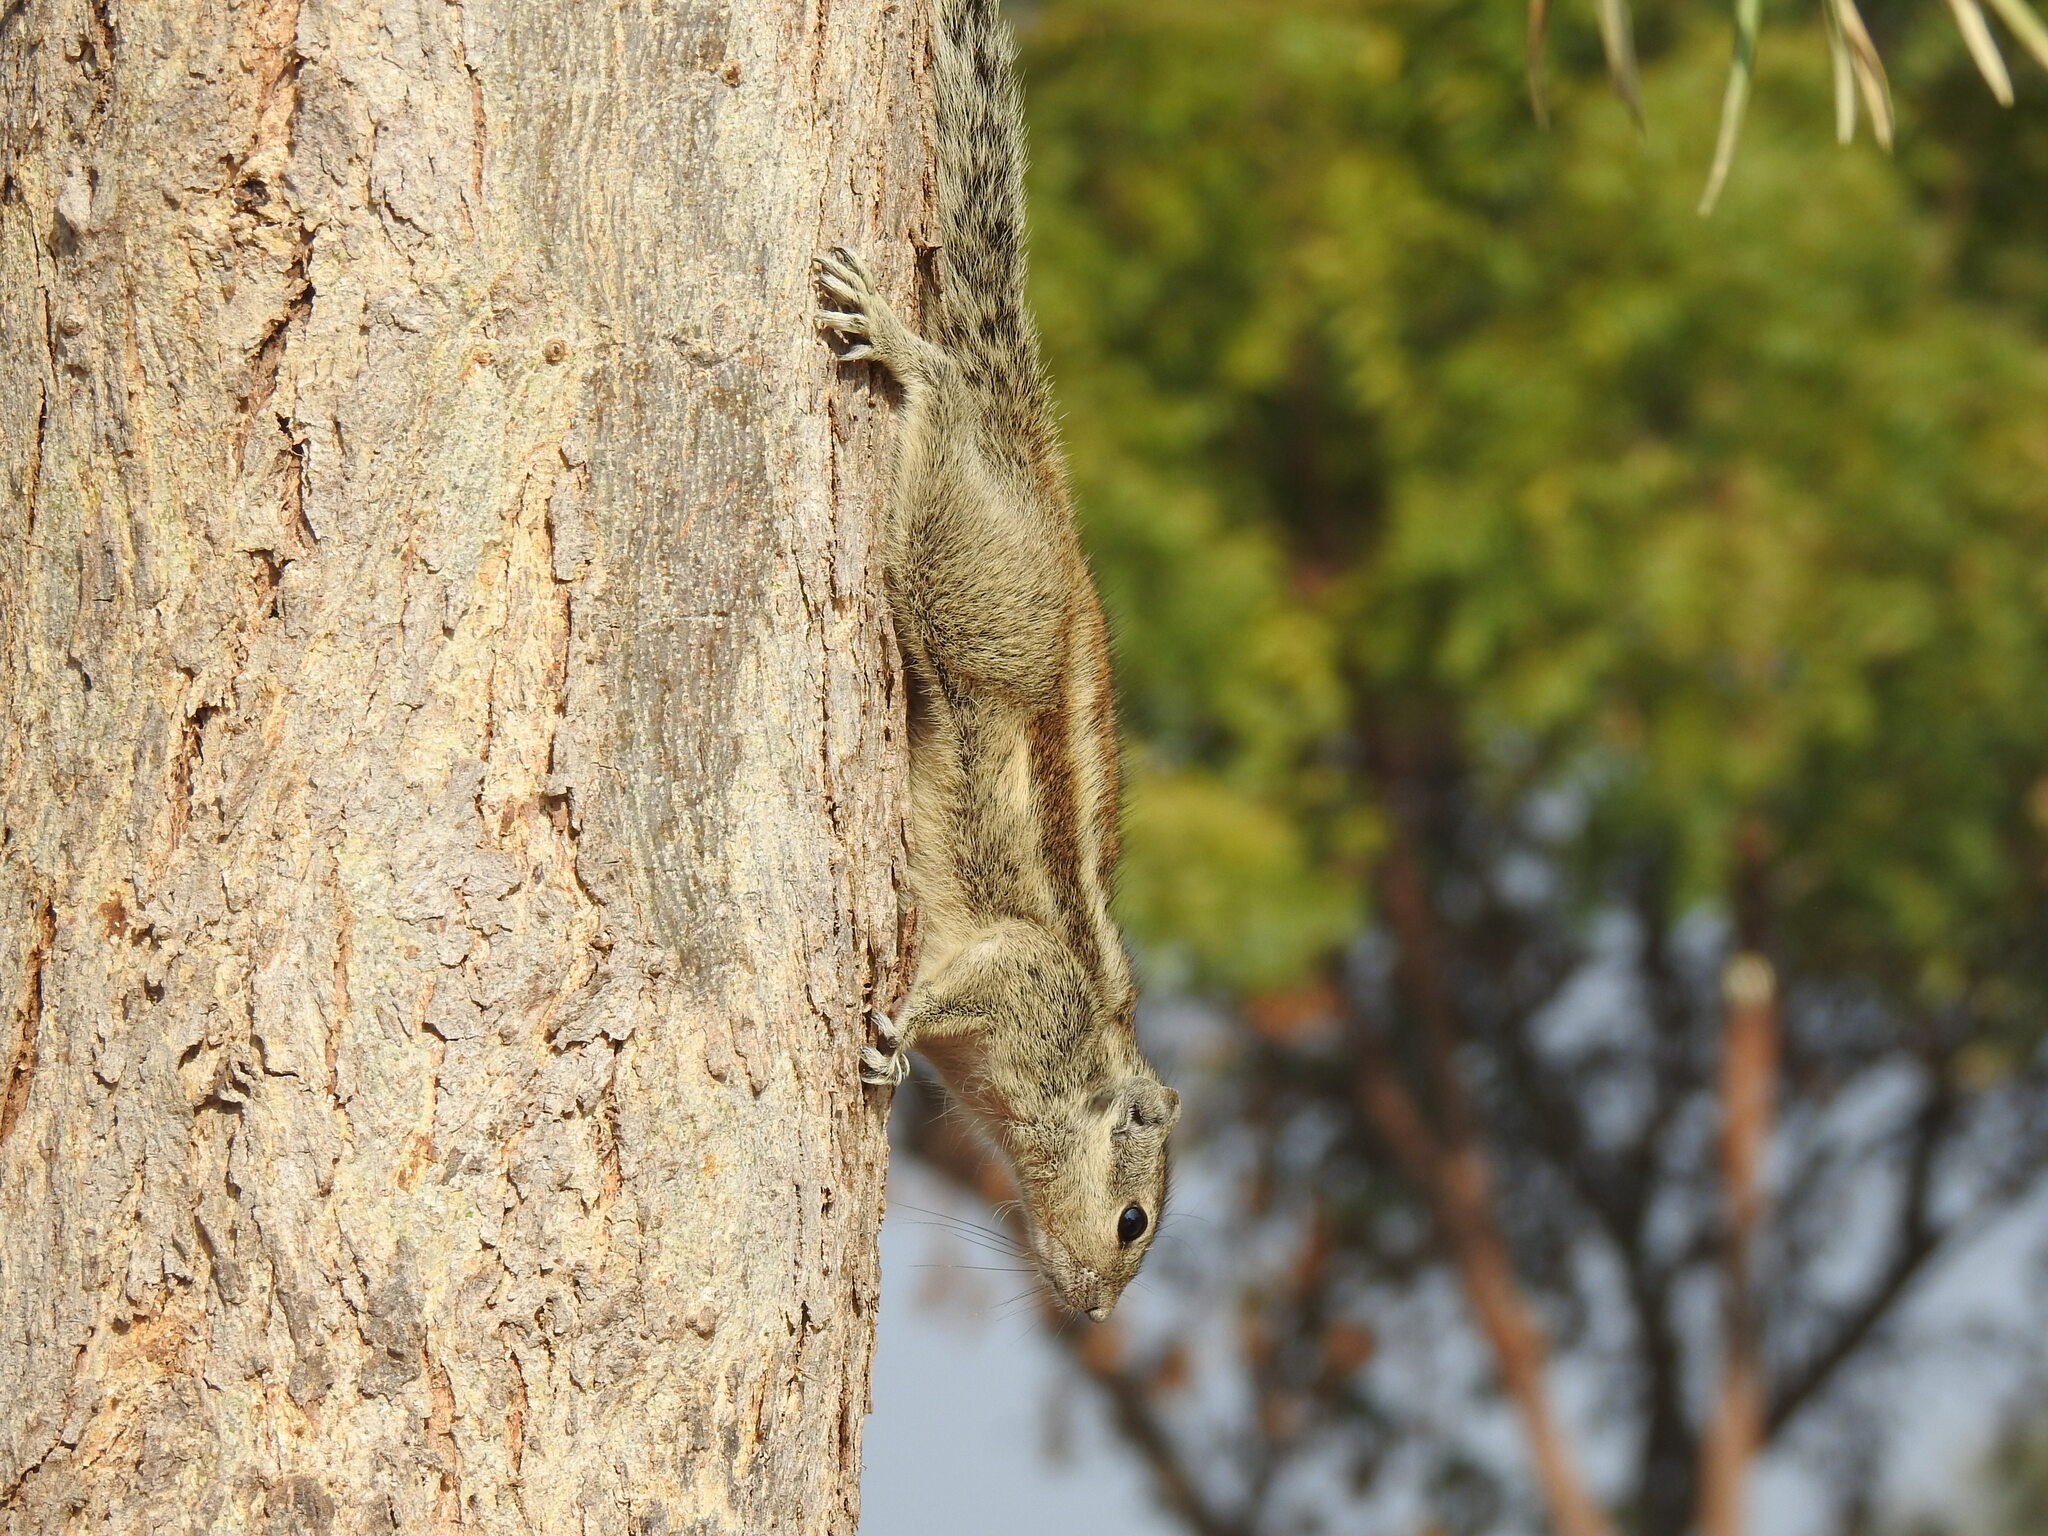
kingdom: Animalia
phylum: Chordata
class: Mammalia
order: Rodentia
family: Sciuridae
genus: Funambulus
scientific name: Funambulus pennantii
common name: Northern palm squirrel
